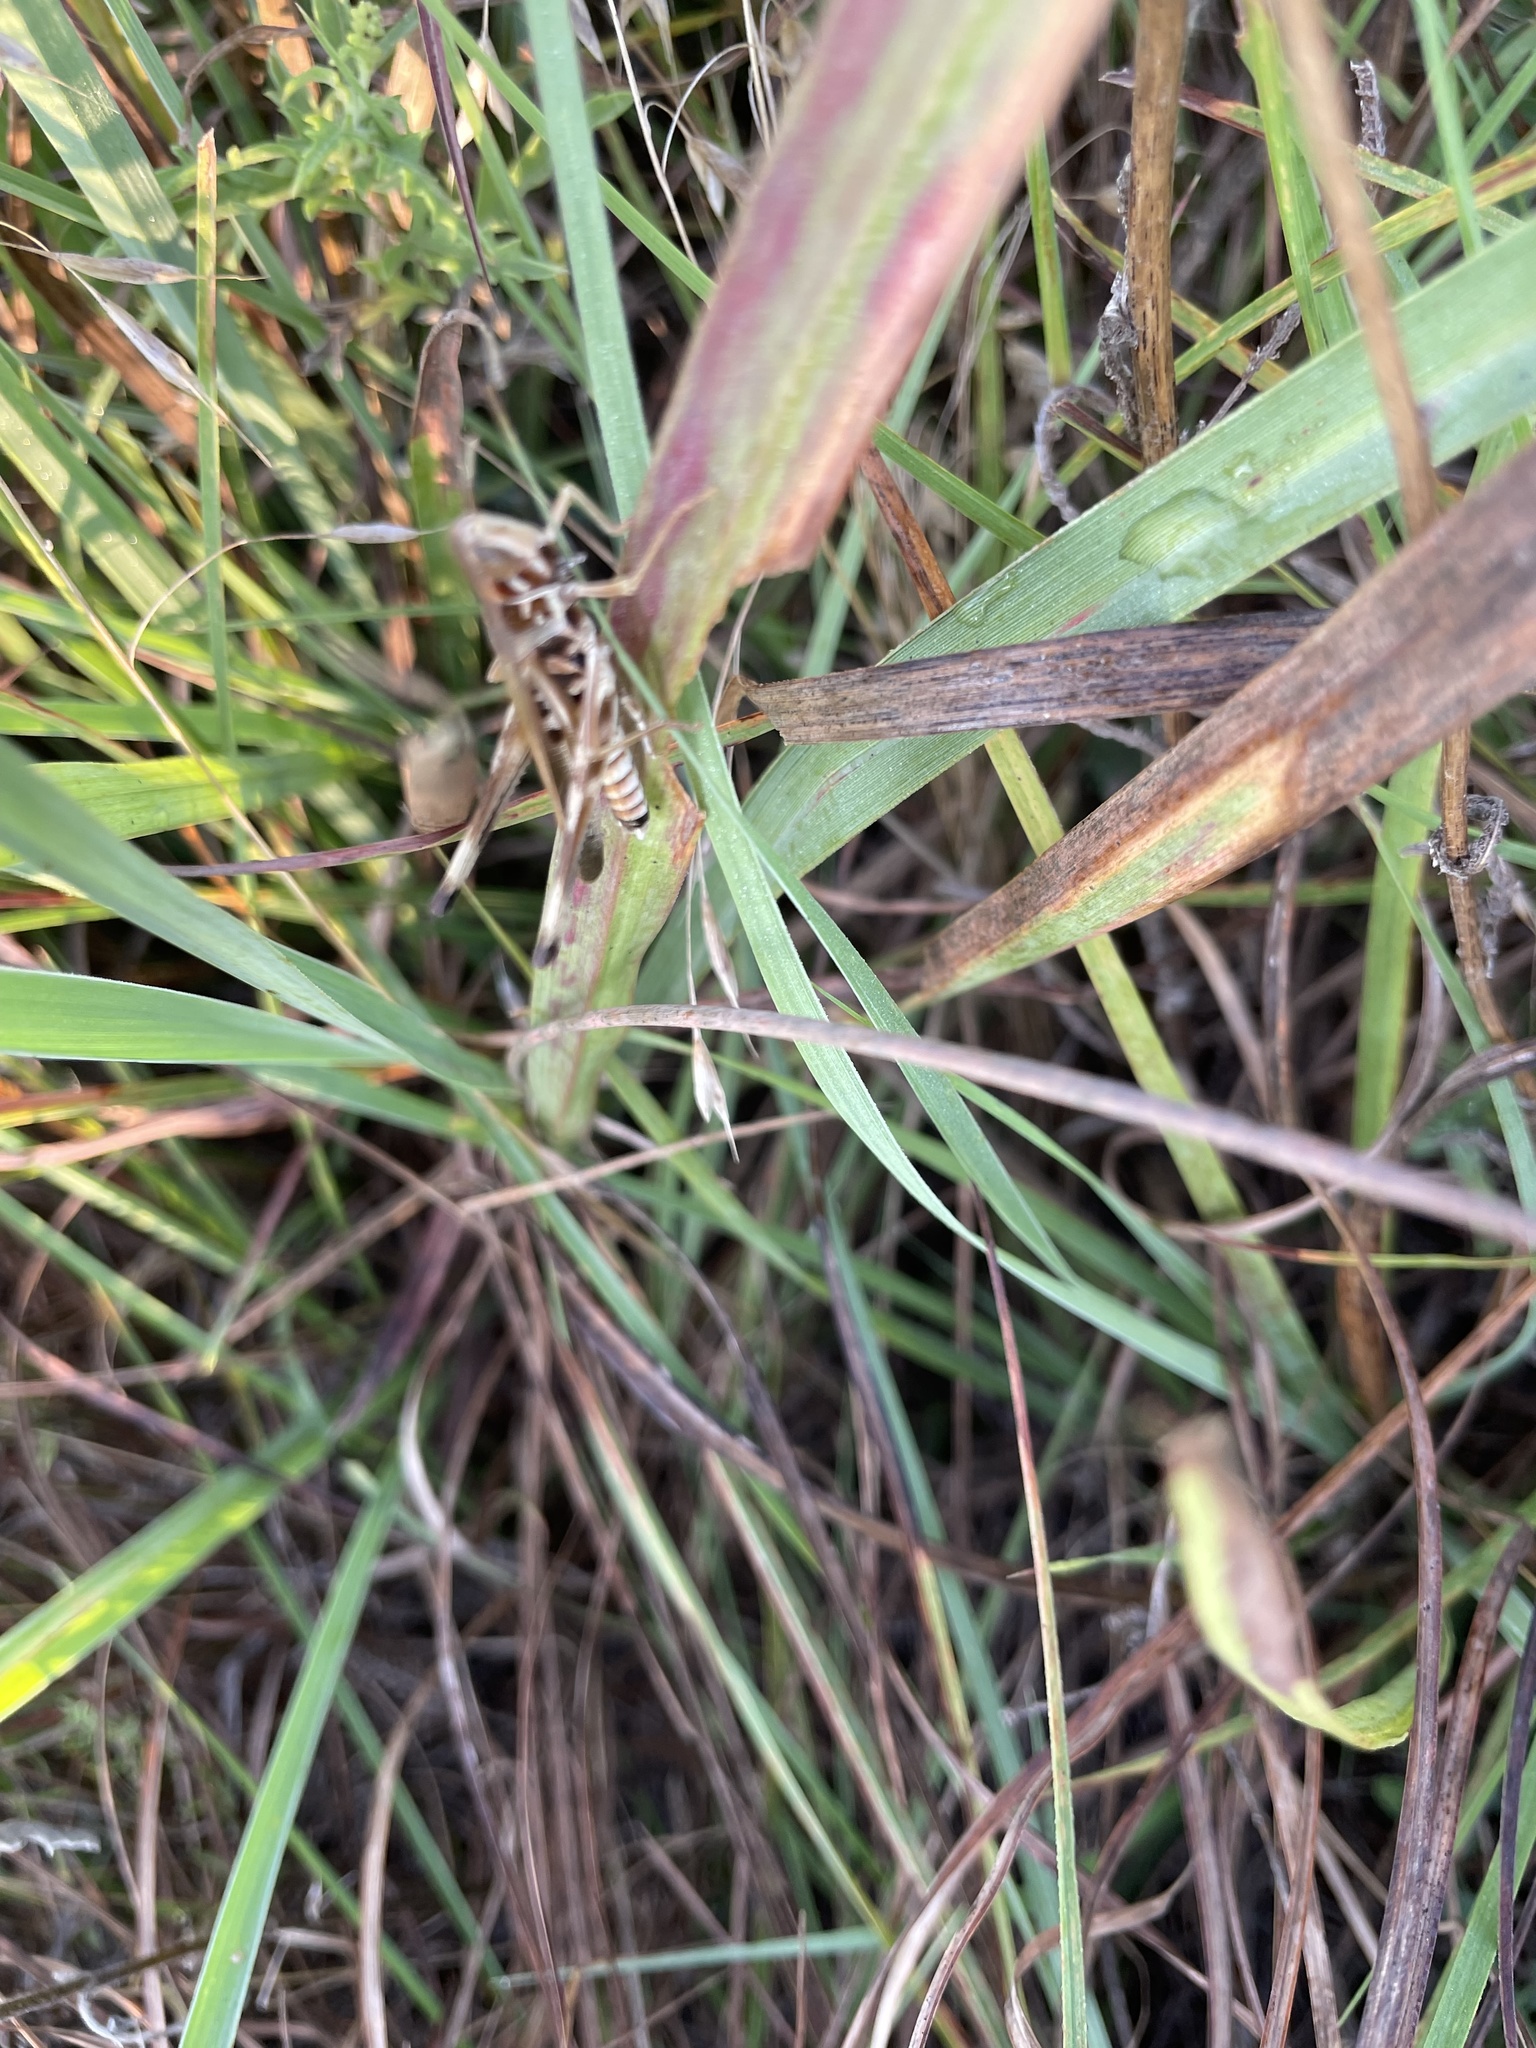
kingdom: Animalia
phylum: Arthropoda
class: Insecta
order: Orthoptera
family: Acrididae
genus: Syrbula
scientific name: Syrbula admirabilis
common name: Handsome grasshopper
